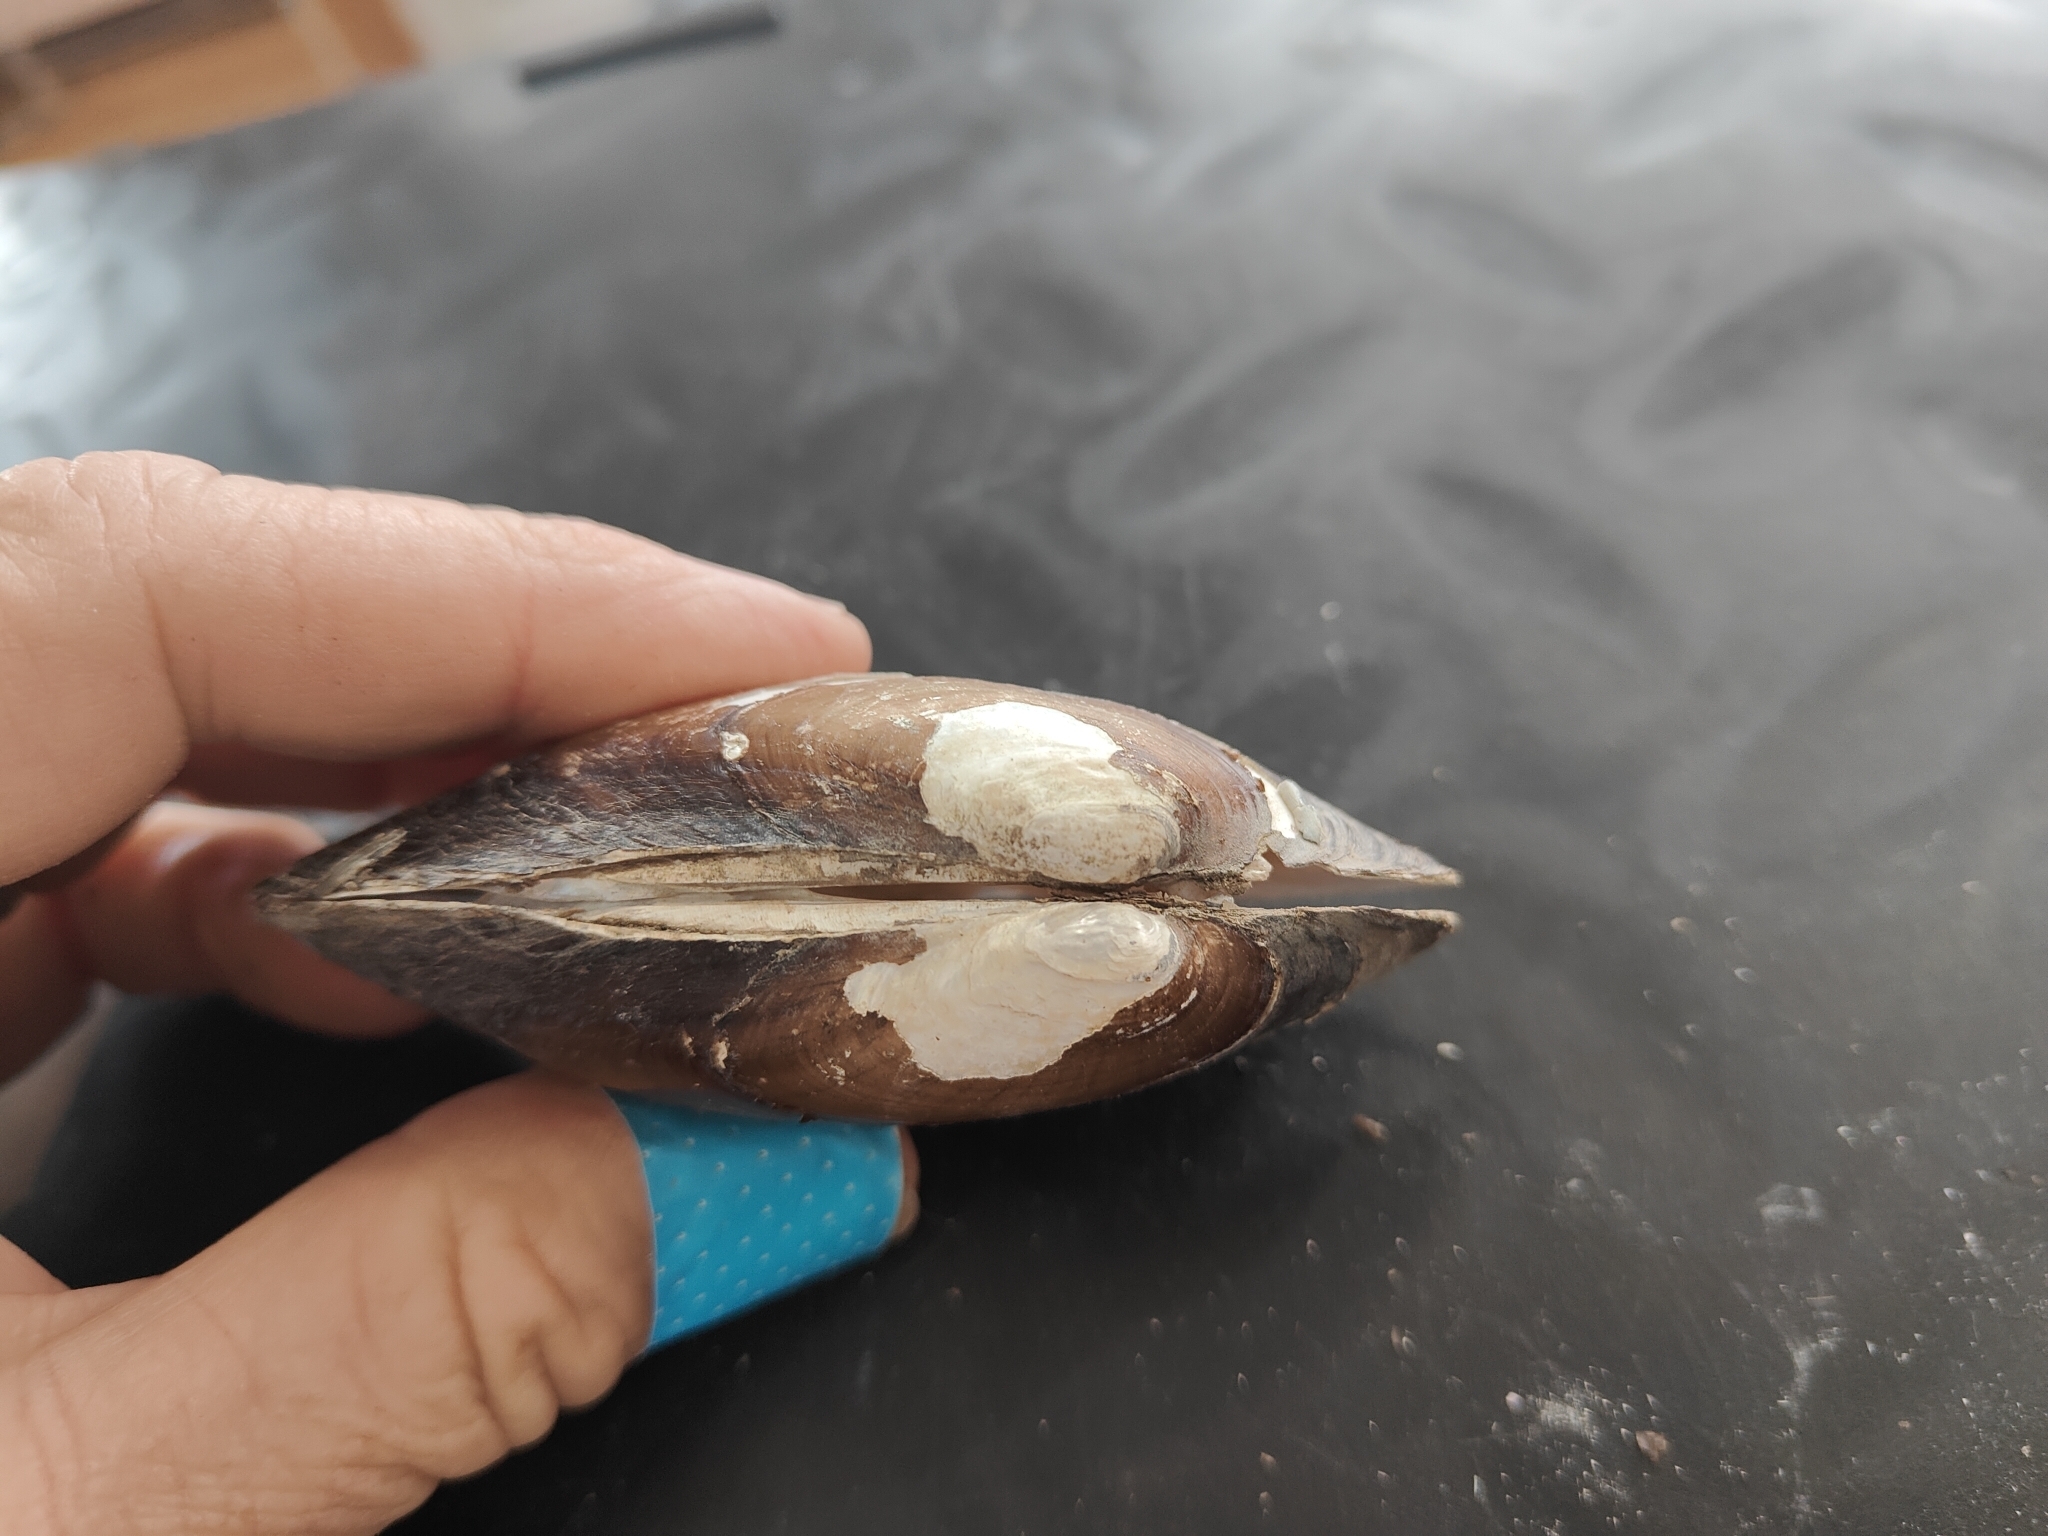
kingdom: Animalia
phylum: Mollusca
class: Bivalvia
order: Unionida
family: Unionidae
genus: Lampsilis
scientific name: Lampsilis siliquoidea
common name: Fatmucket
